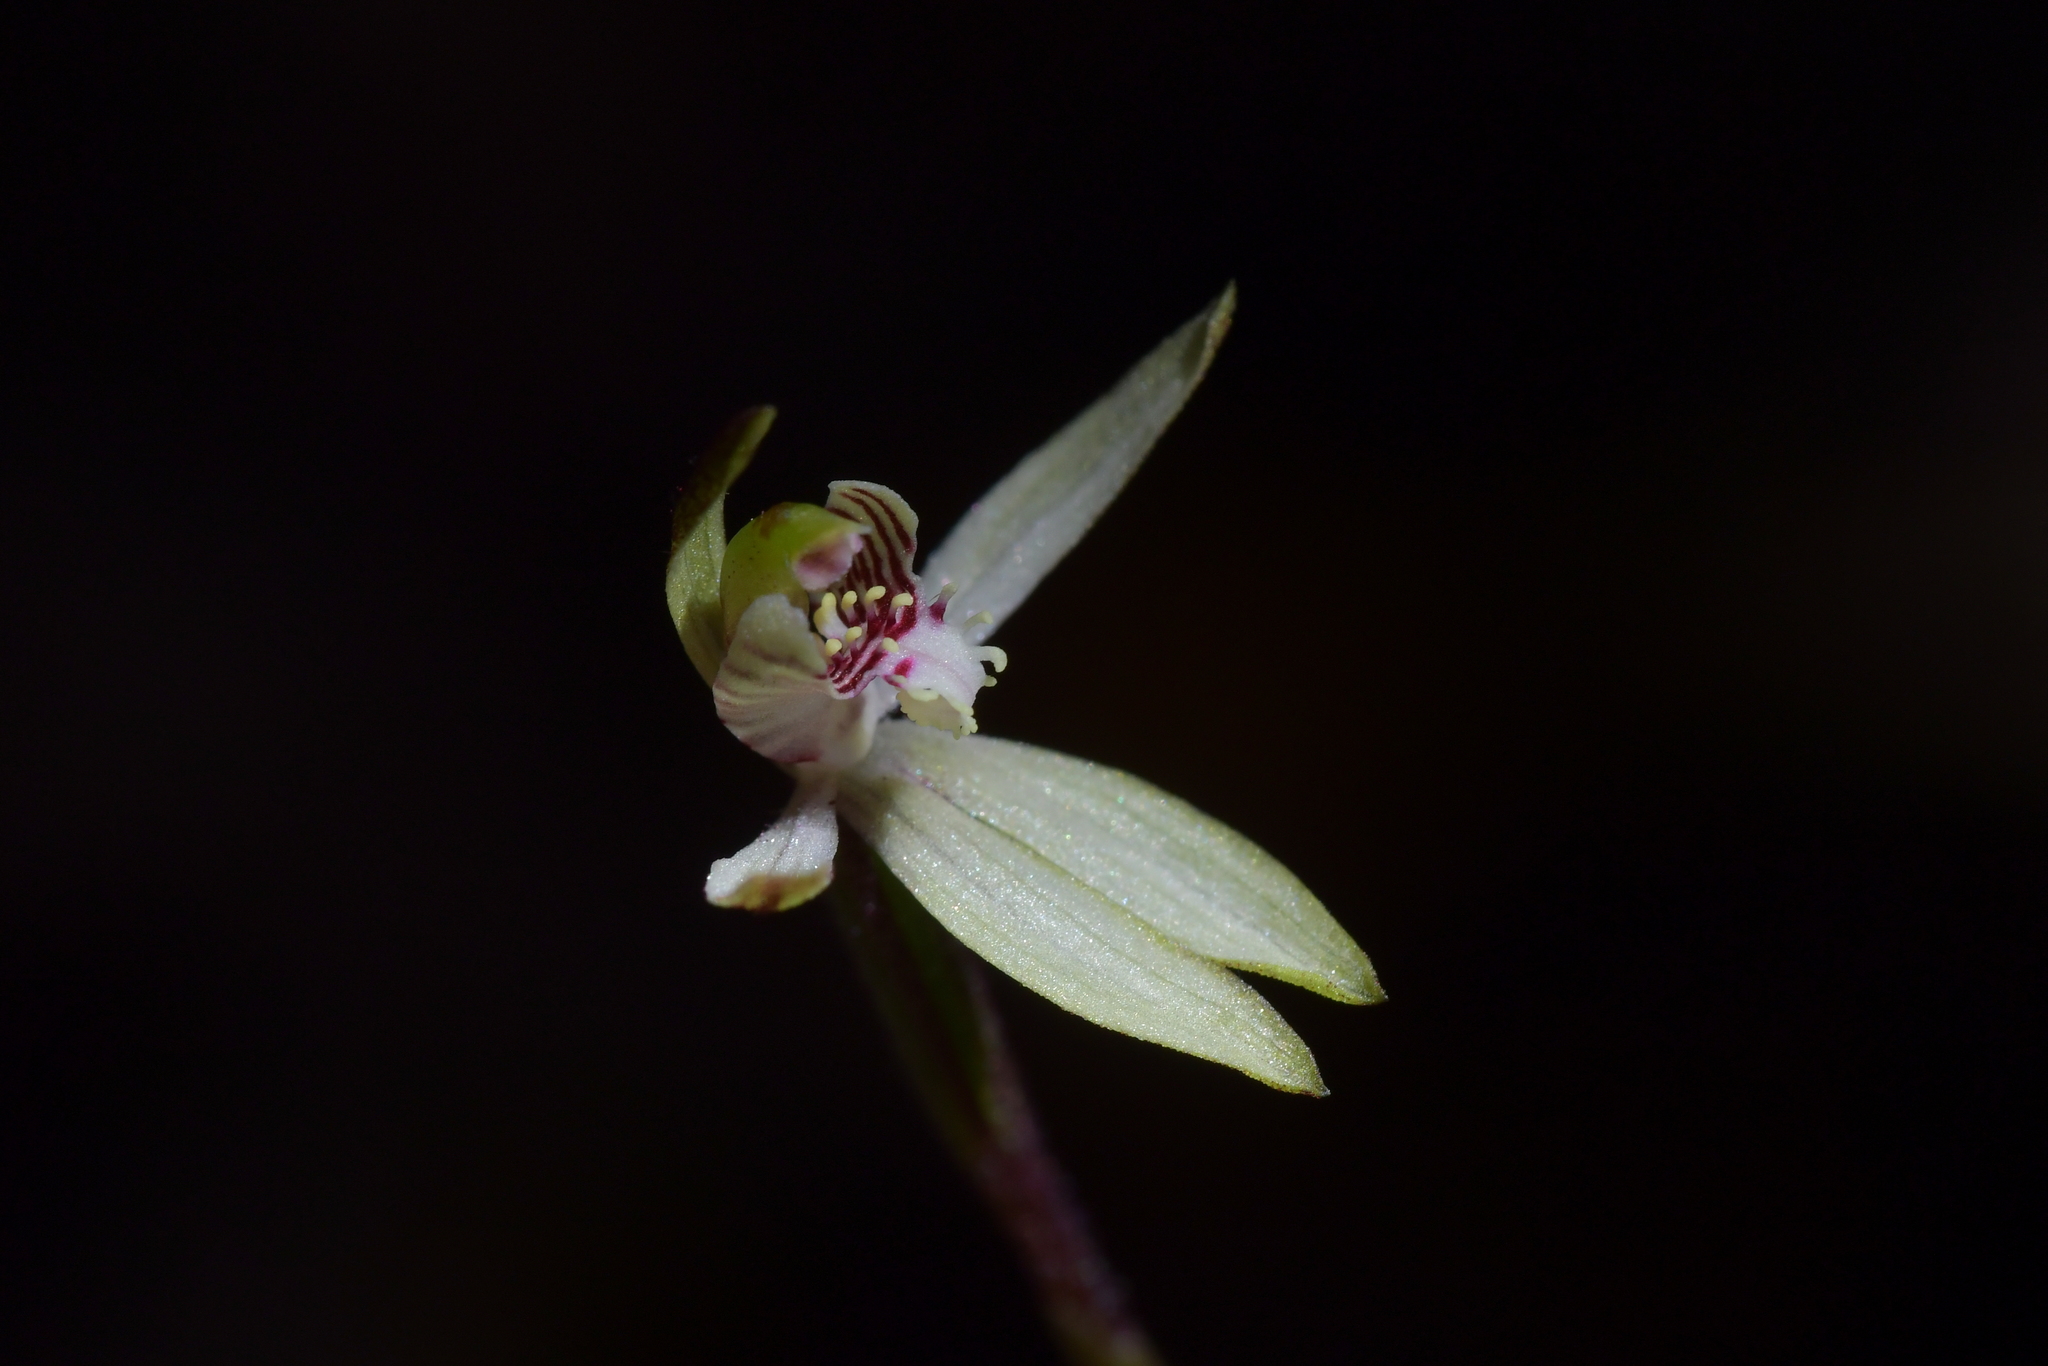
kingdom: Plantae
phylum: Tracheophyta
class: Liliopsida
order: Asparagales
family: Orchidaceae
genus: Caladenia
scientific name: Caladenia chlorostyla
